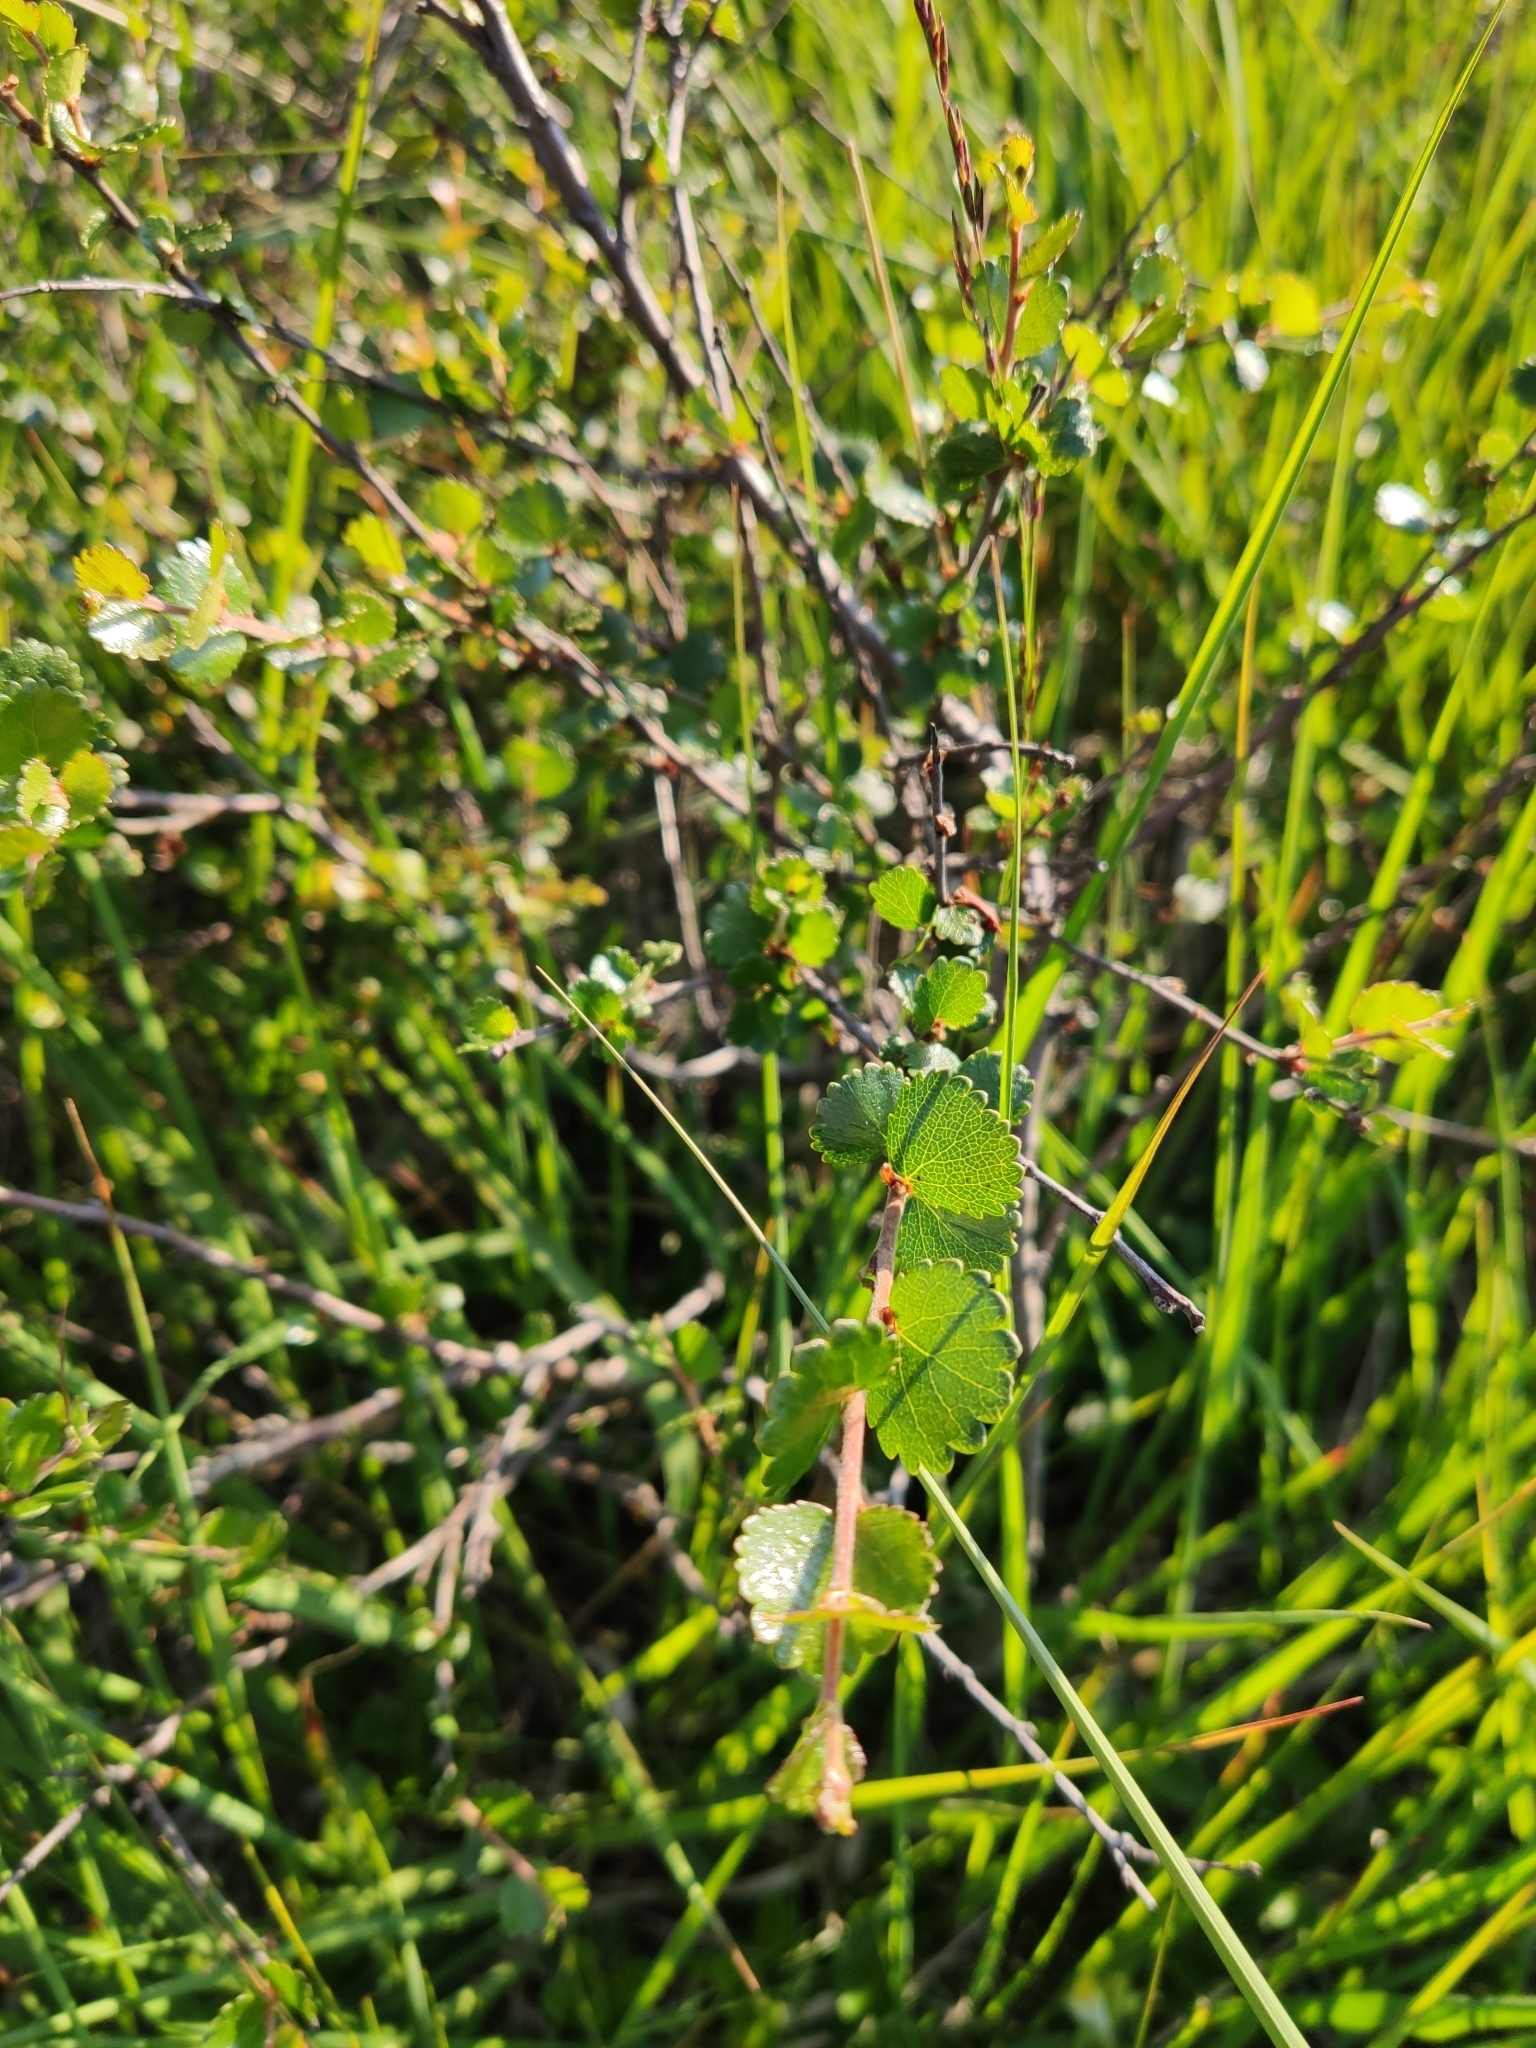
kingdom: Plantae
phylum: Tracheophyta
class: Magnoliopsida
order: Fagales
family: Betulaceae
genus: Betula
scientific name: Betula nana
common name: Arctic dwarf birch
